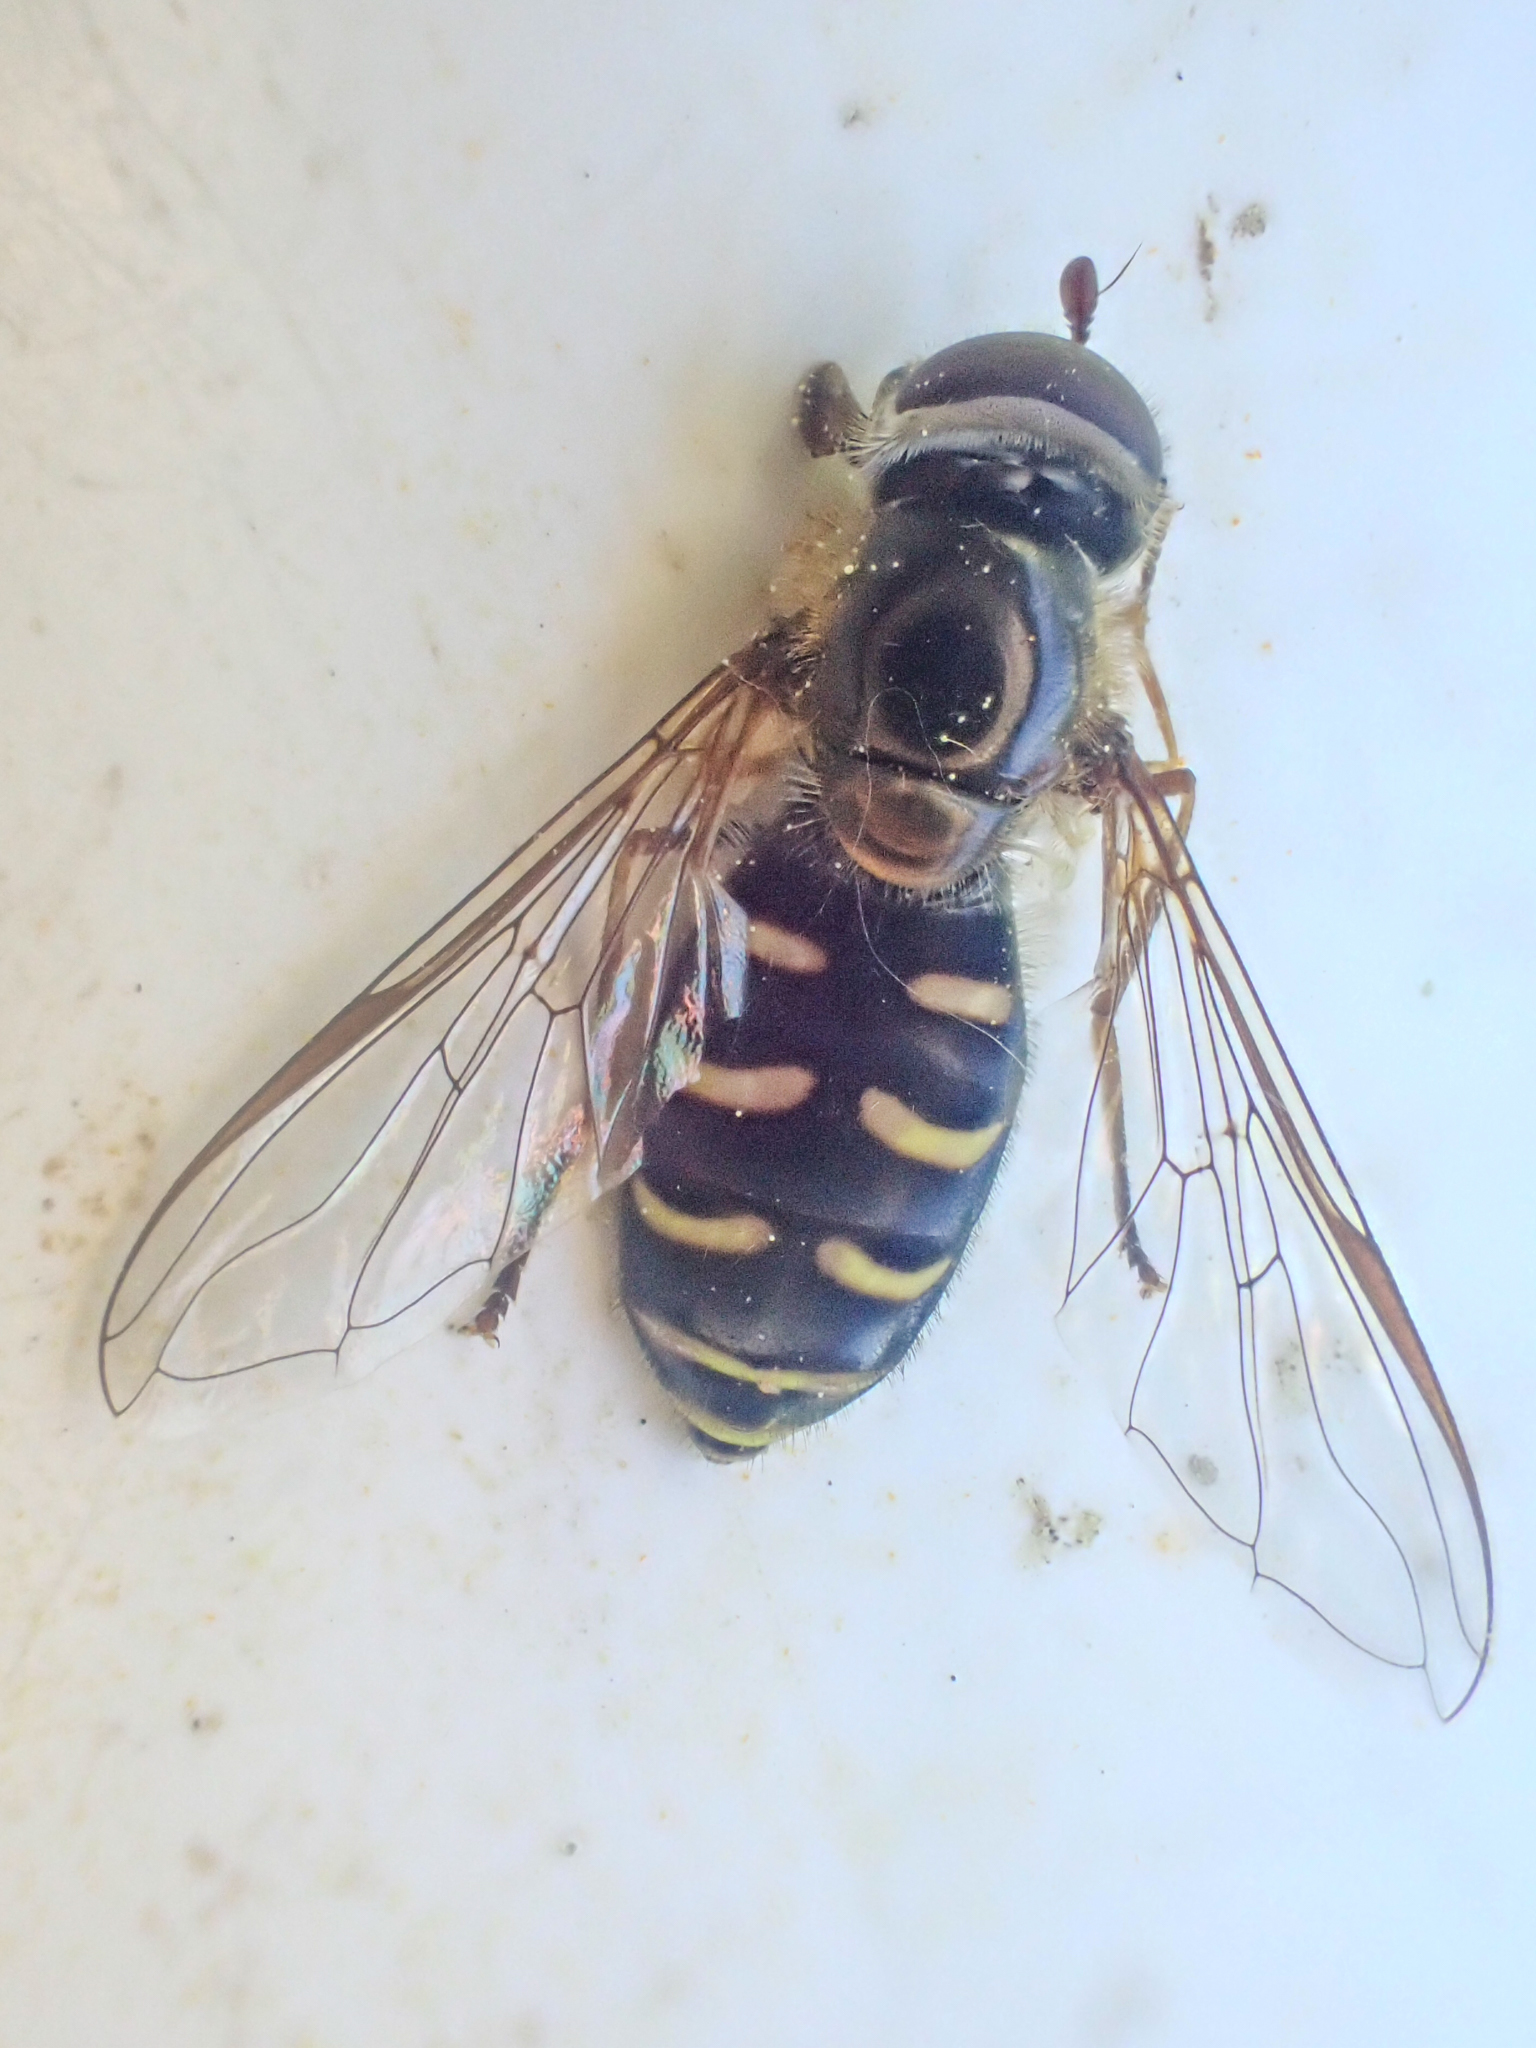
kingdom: Animalia
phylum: Arthropoda
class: Insecta
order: Diptera
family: Syrphidae
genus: Lapposyrphus
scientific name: Lapposyrphus lapponicus
